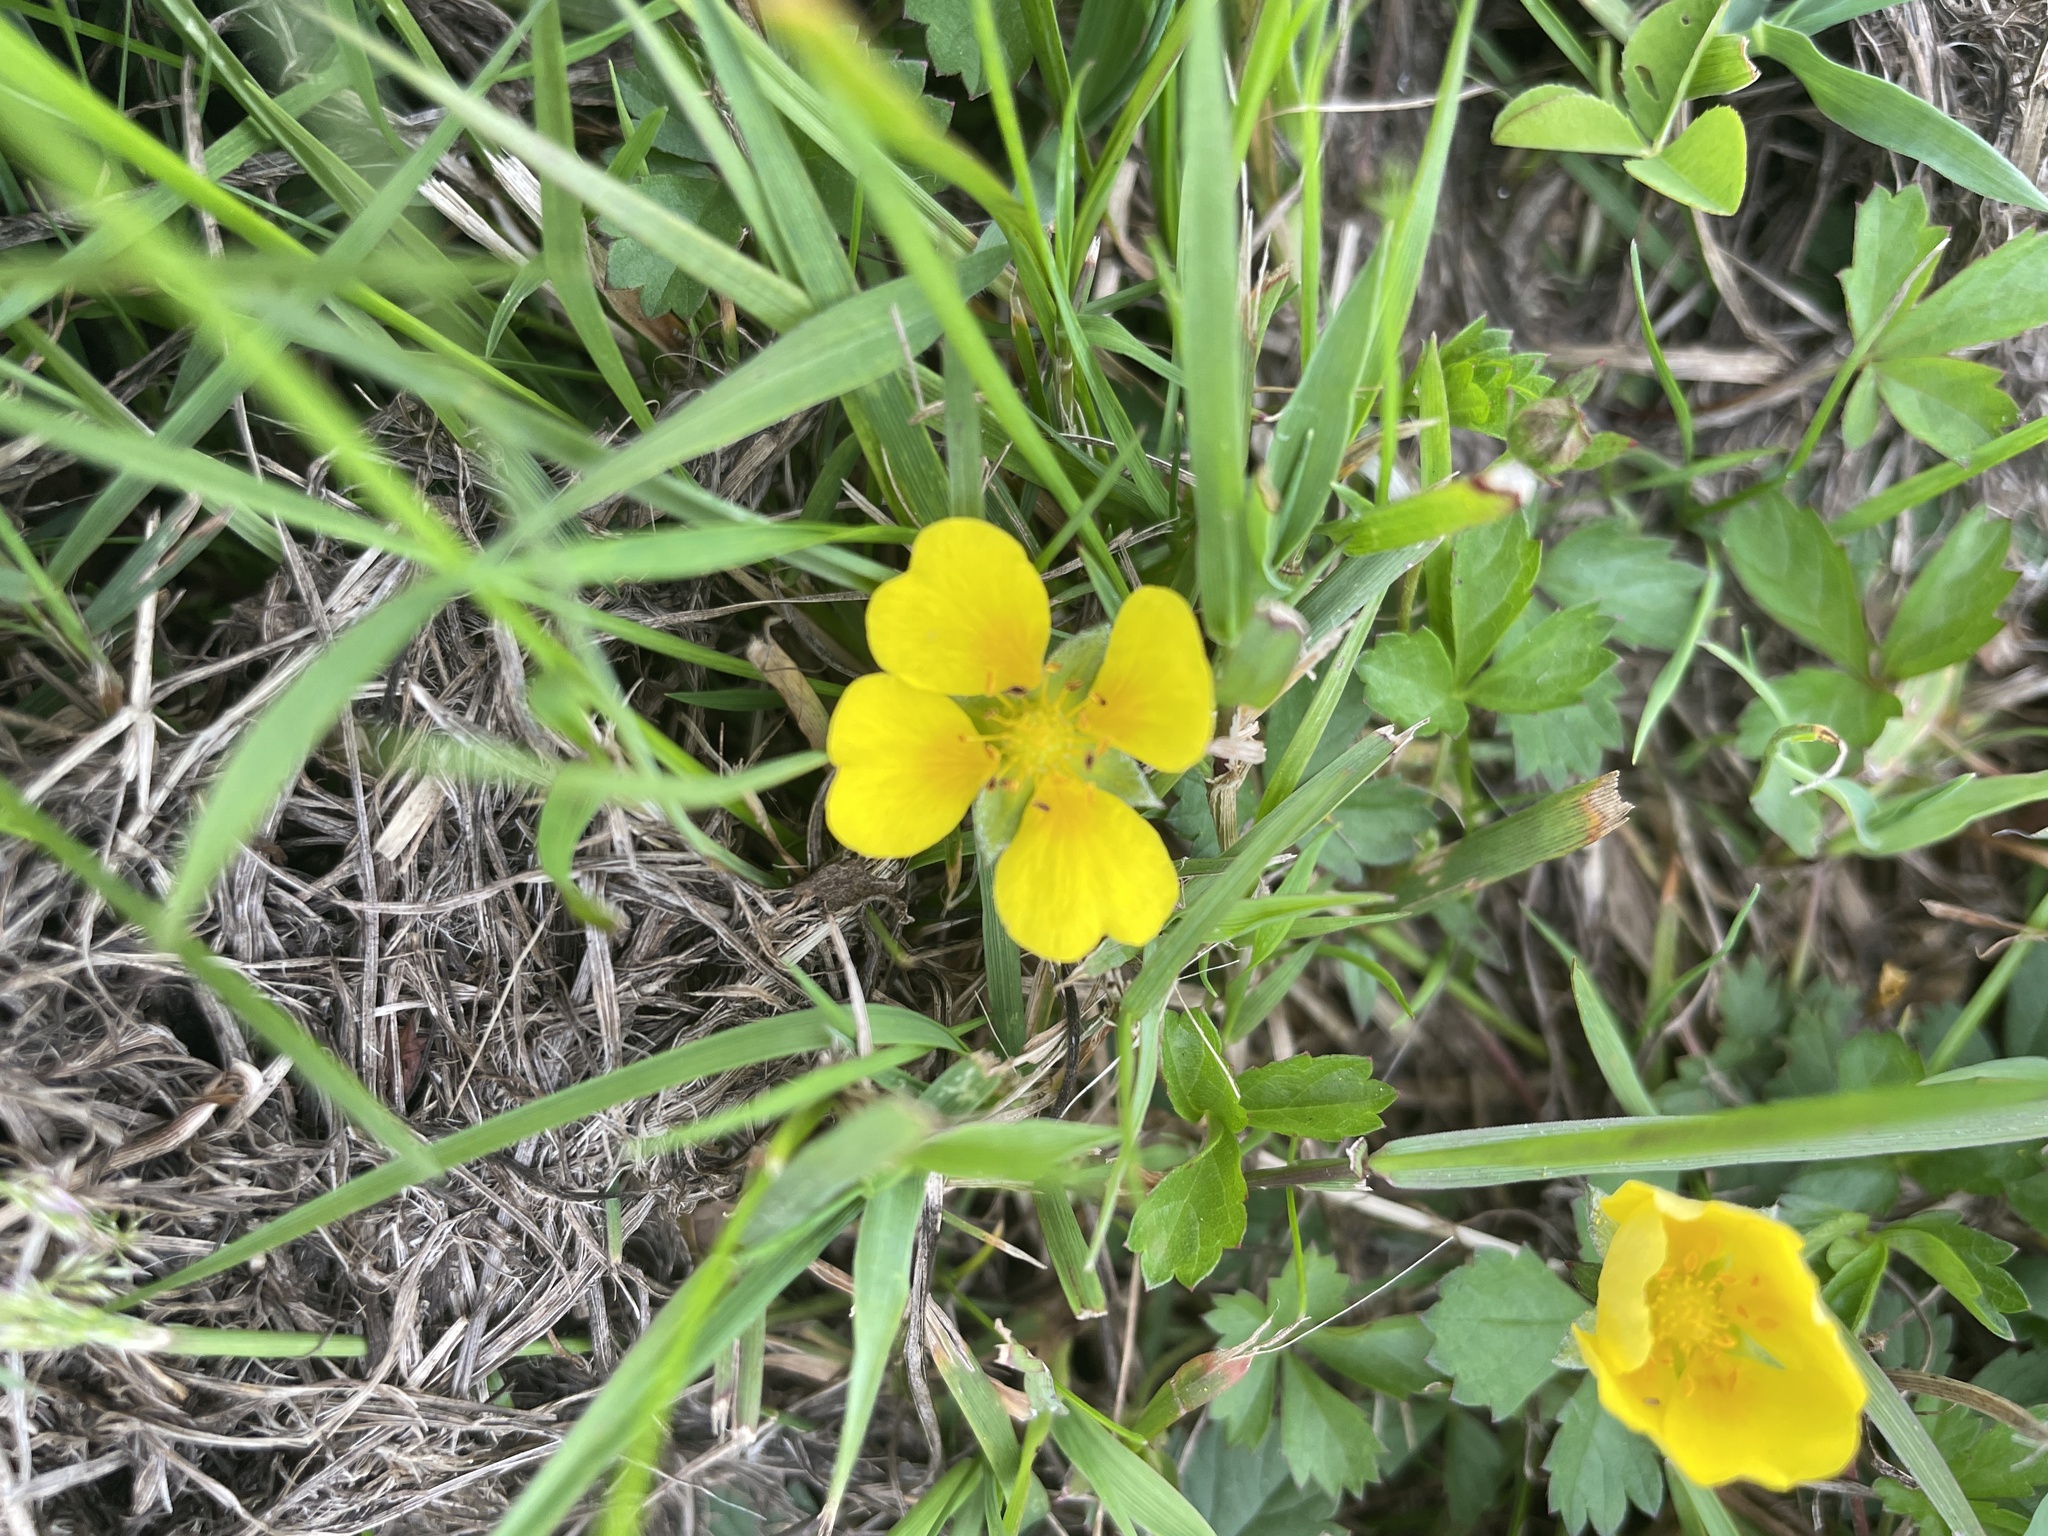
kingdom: Plantae
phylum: Tracheophyta
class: Magnoliopsida
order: Rosales
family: Rosaceae
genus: Potentilla
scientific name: Potentilla erecta
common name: Tormentil
